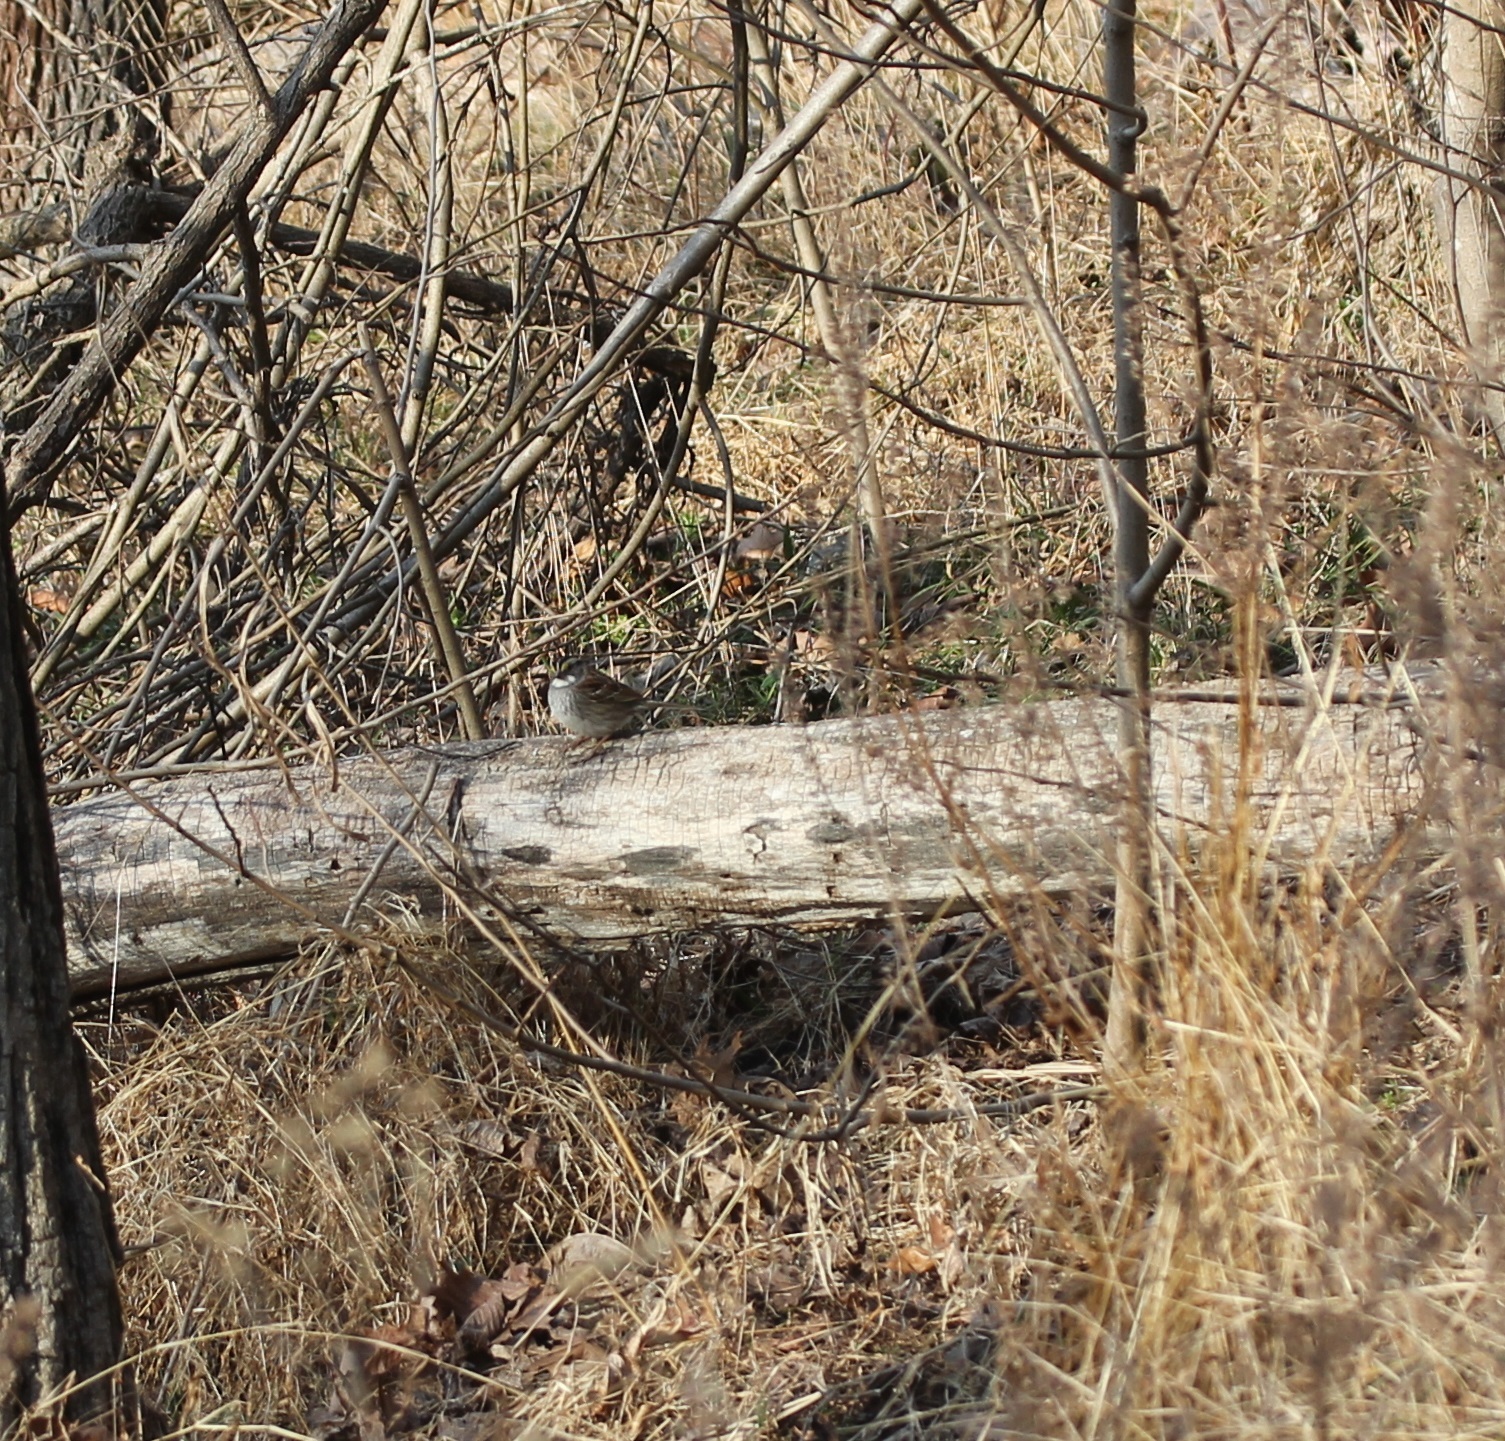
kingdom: Animalia
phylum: Chordata
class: Aves
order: Passeriformes
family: Passerellidae
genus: Zonotrichia
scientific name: Zonotrichia albicollis
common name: White-throated sparrow
